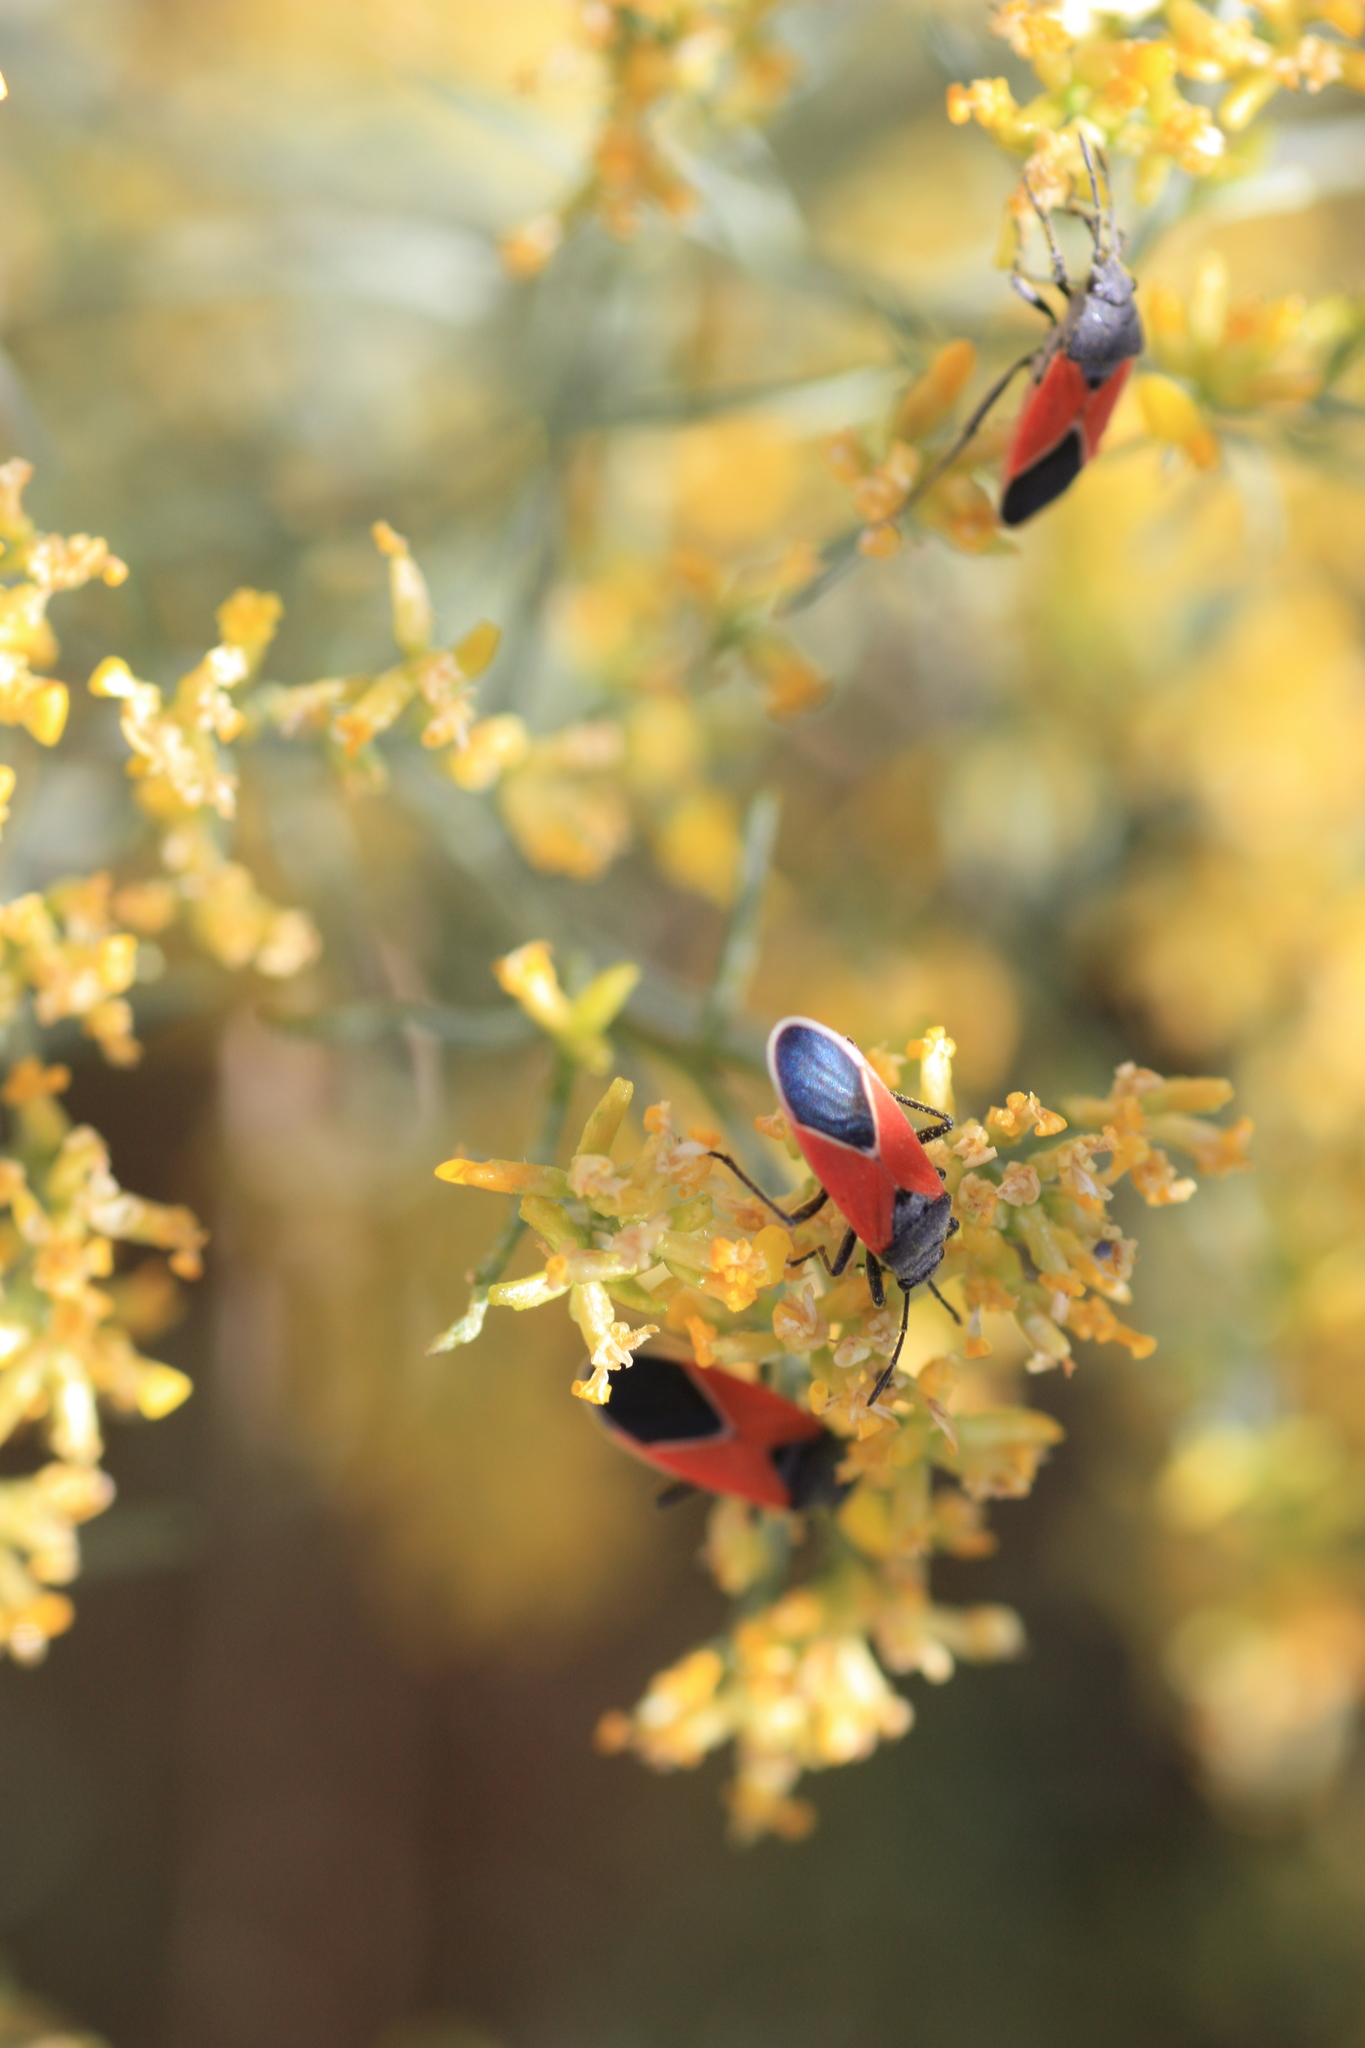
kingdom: Animalia
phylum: Arthropoda
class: Insecta
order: Hemiptera
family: Lygaeidae
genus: Melanopleurus
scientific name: Melanopleurus belfragei
